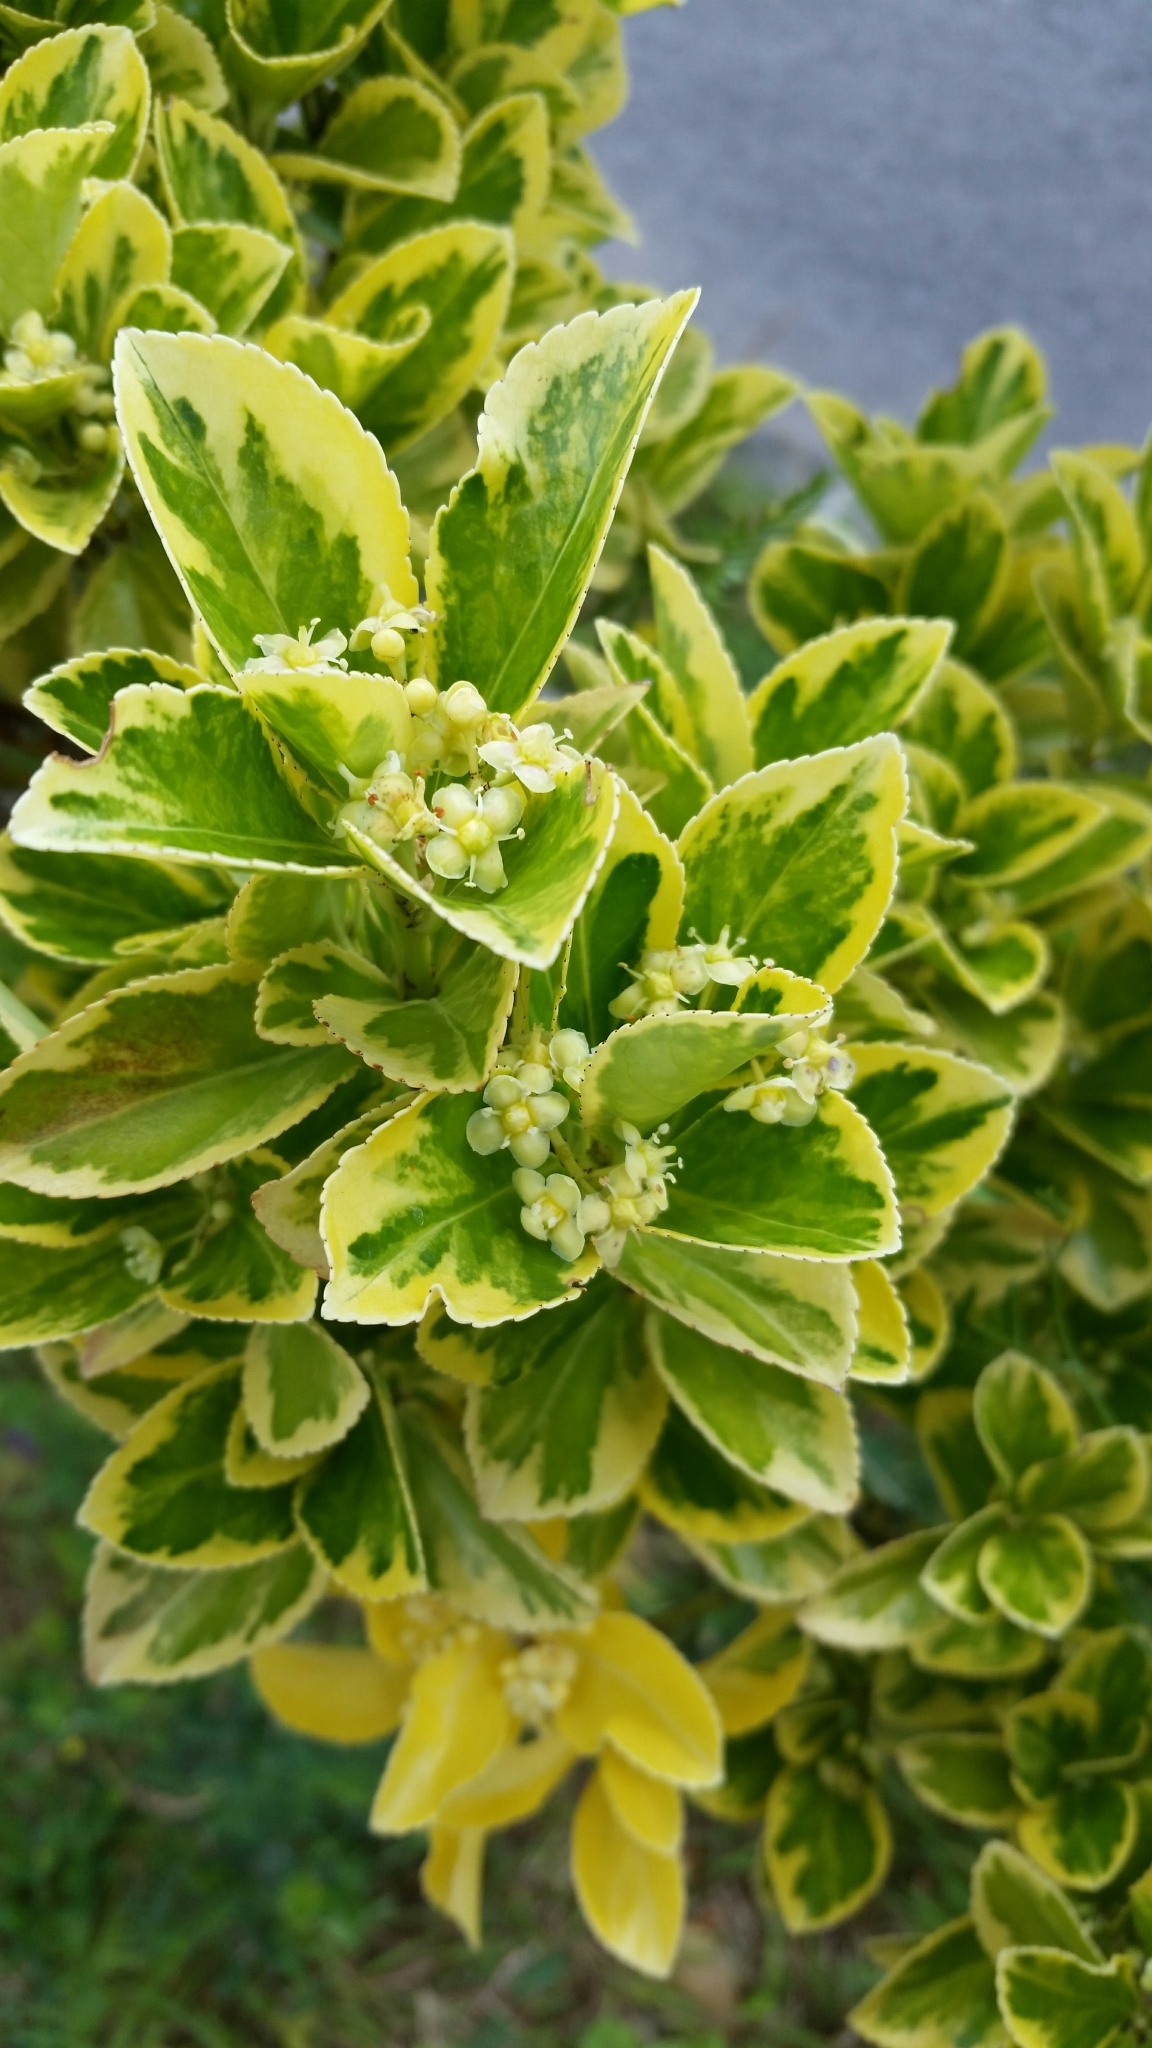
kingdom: Plantae
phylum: Tracheophyta
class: Magnoliopsida
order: Celastrales
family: Celastraceae
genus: Euonymus
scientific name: Euonymus japonicus
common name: Japanese spindletree
